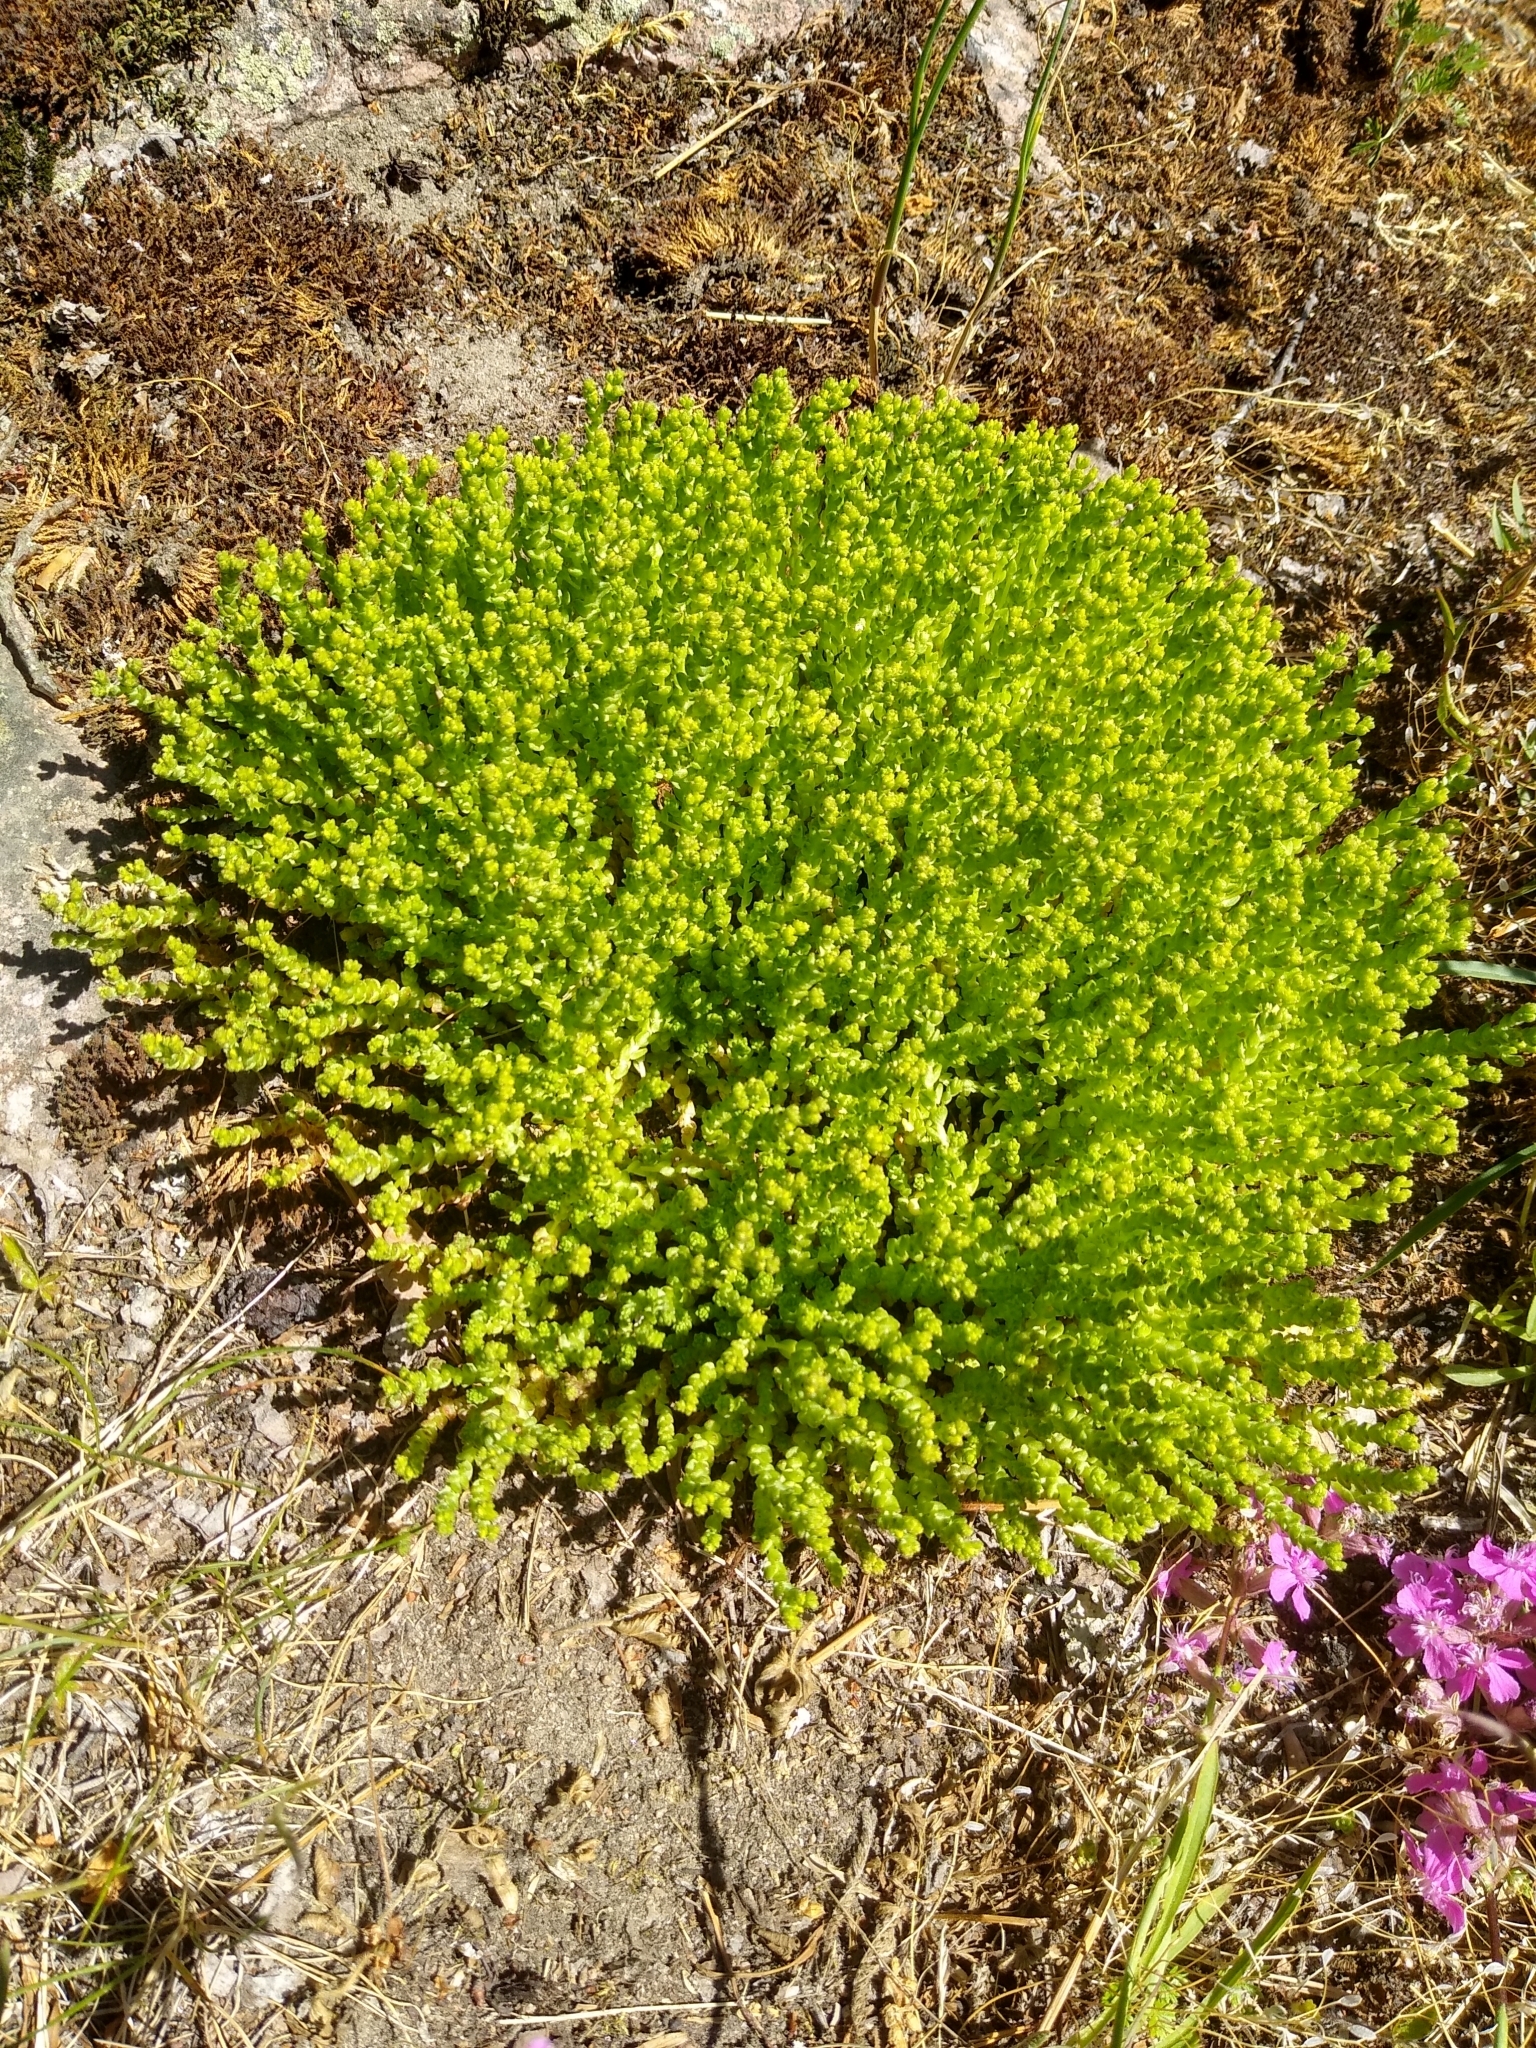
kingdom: Plantae
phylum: Tracheophyta
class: Magnoliopsida
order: Saxifragales
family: Crassulaceae
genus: Sedum
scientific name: Sedum acre
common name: Biting stonecrop
